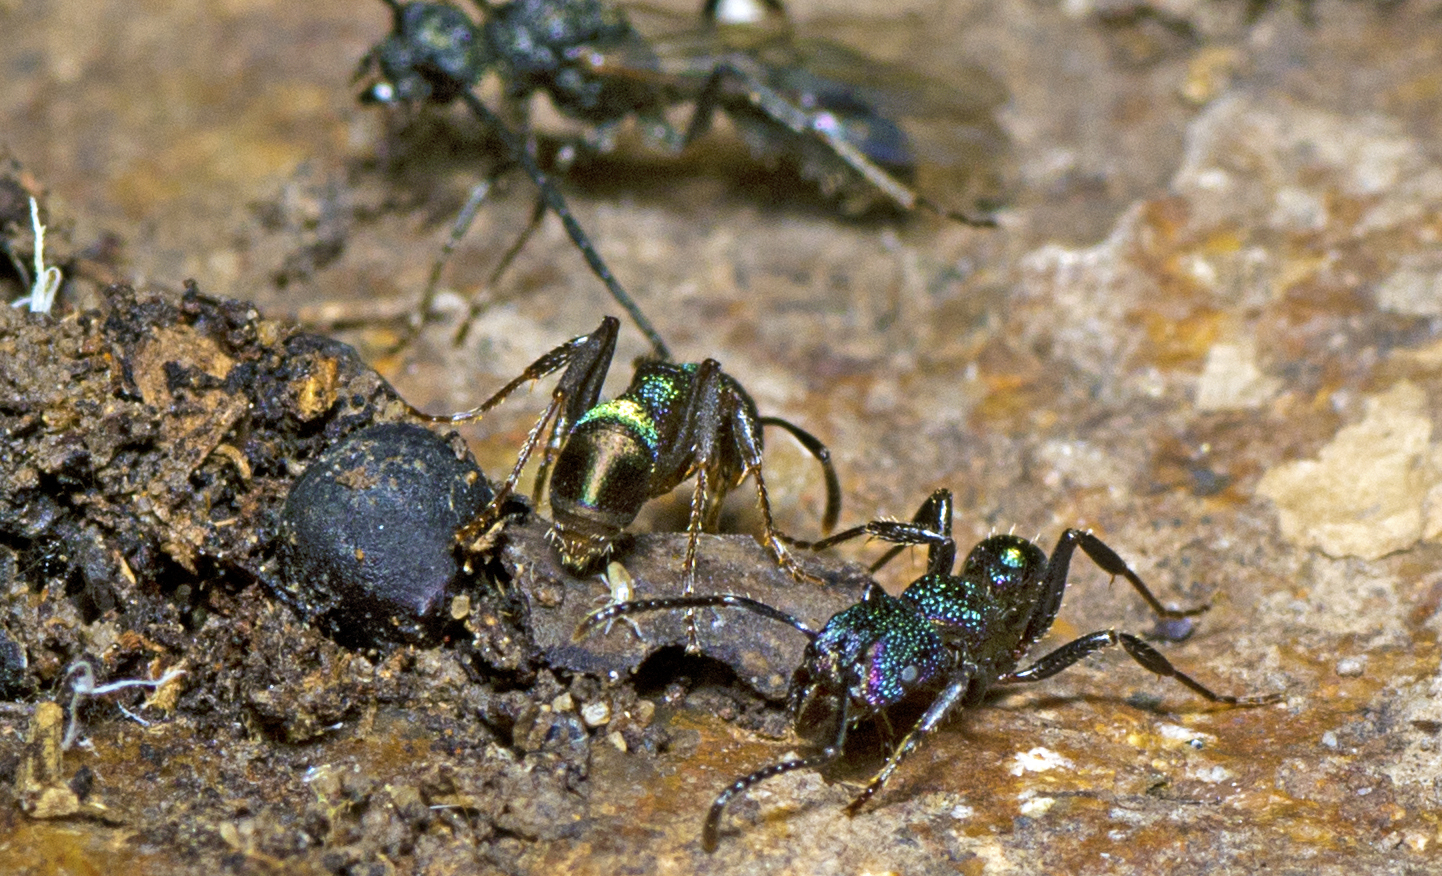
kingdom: Animalia
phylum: Arthropoda
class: Insecta
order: Hymenoptera
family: Formicidae
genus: Rhytidoponera
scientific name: Rhytidoponera metallica
